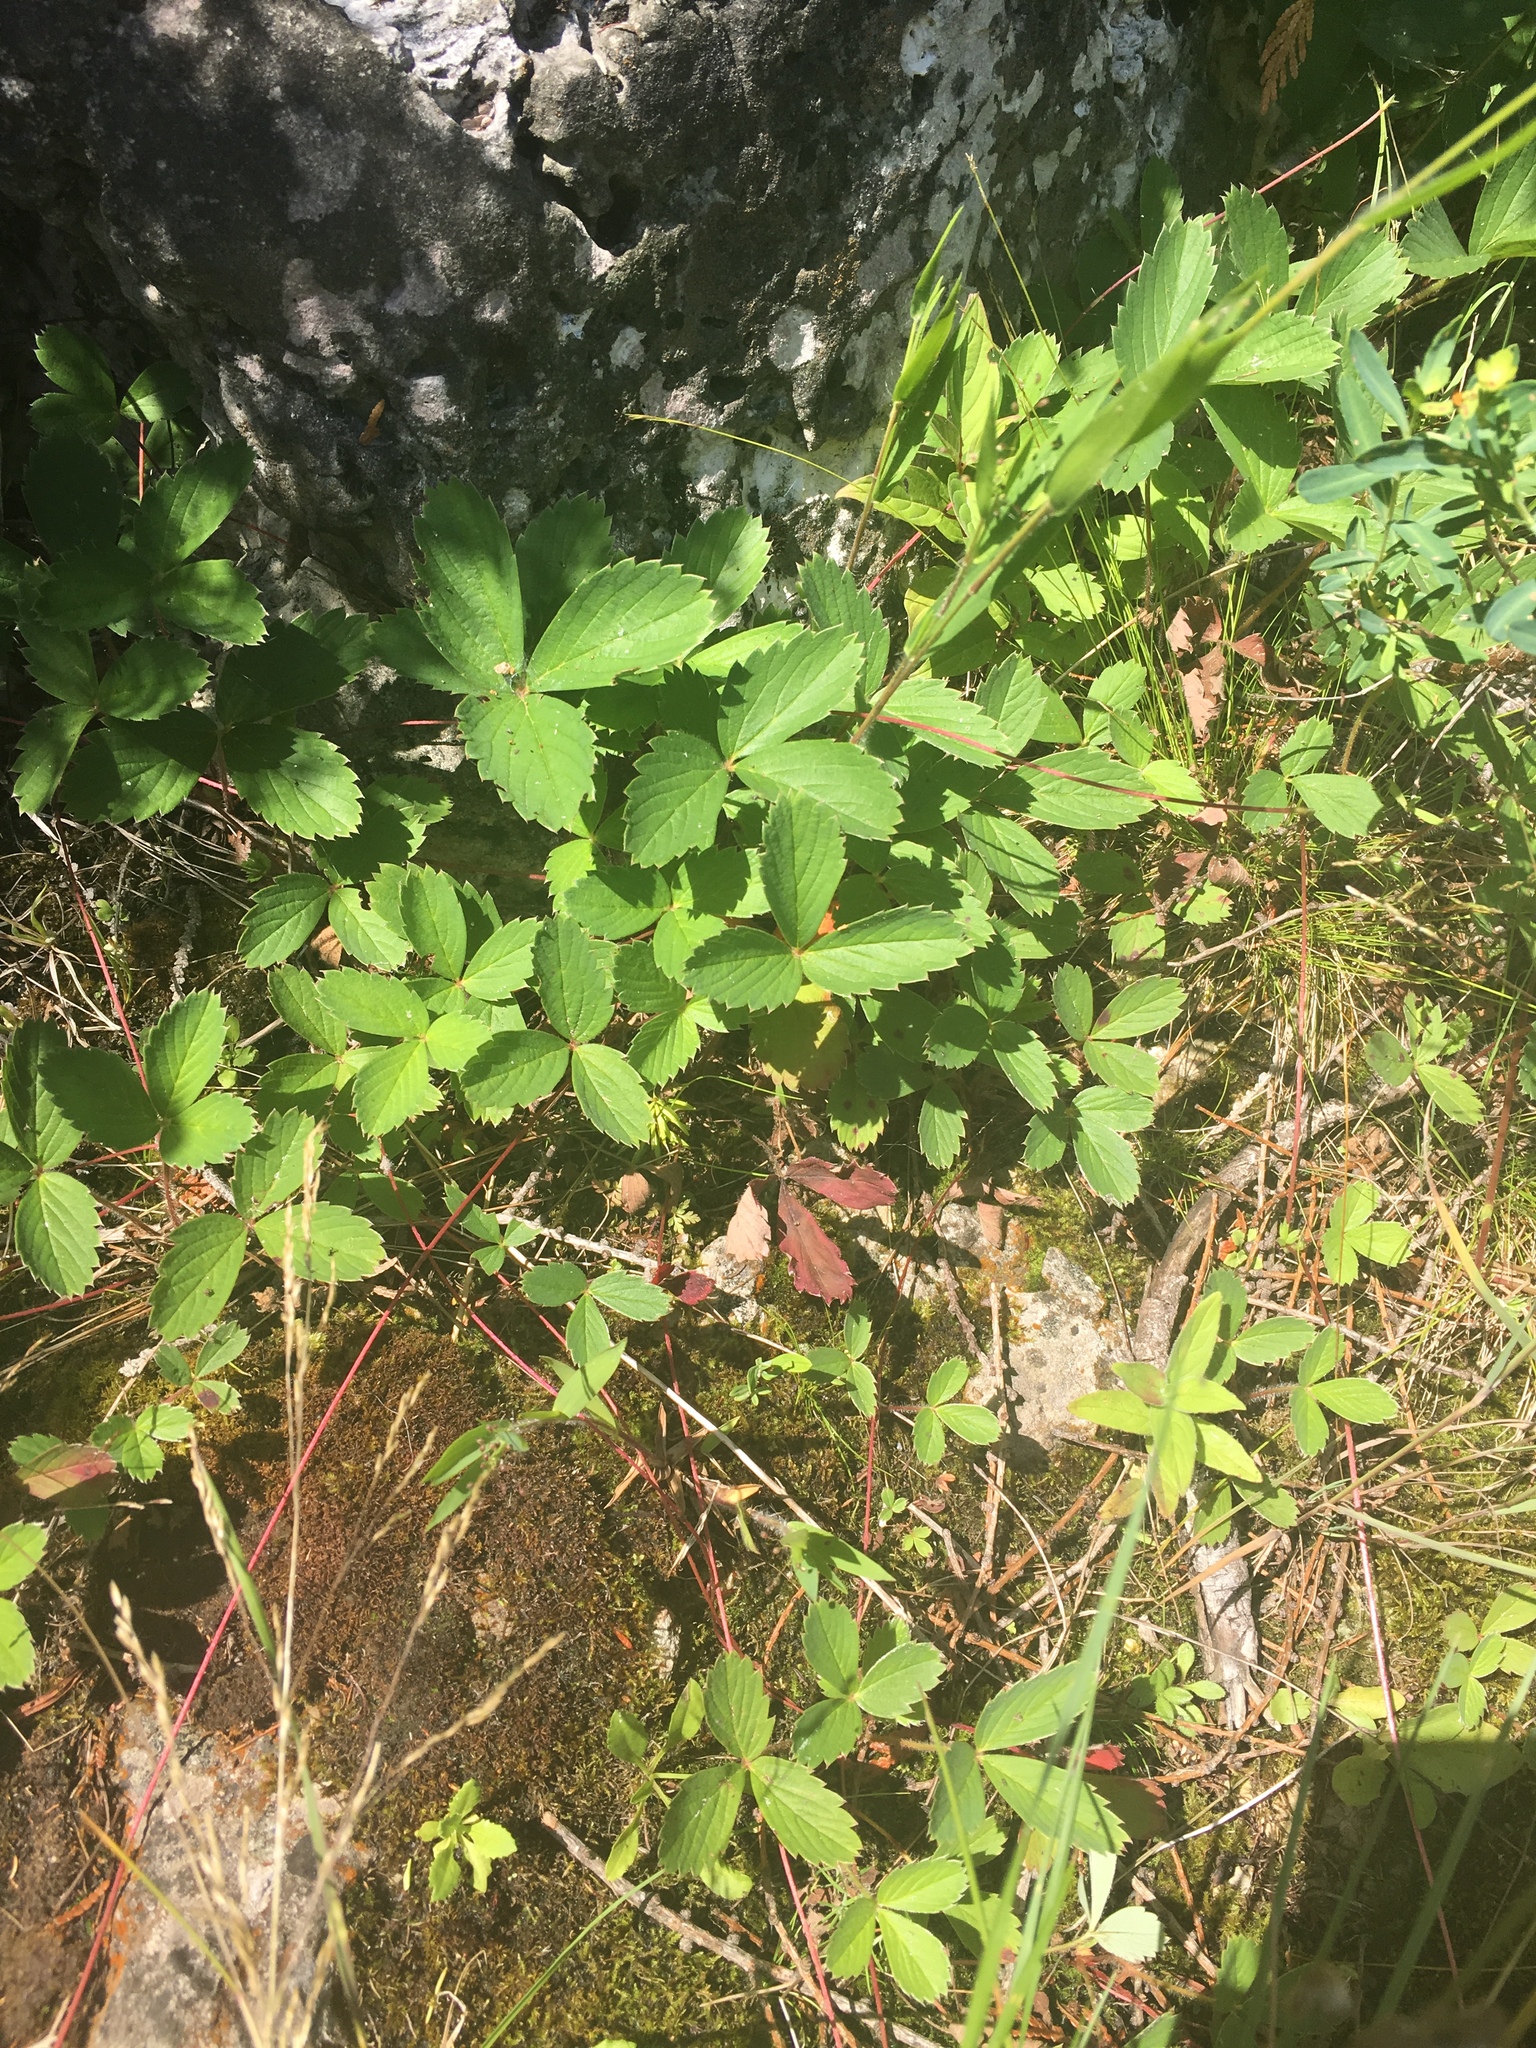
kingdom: Plantae
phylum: Tracheophyta
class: Magnoliopsida
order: Rosales
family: Rosaceae
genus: Fragaria
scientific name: Fragaria virginiana
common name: Thickleaved wild strawberry
